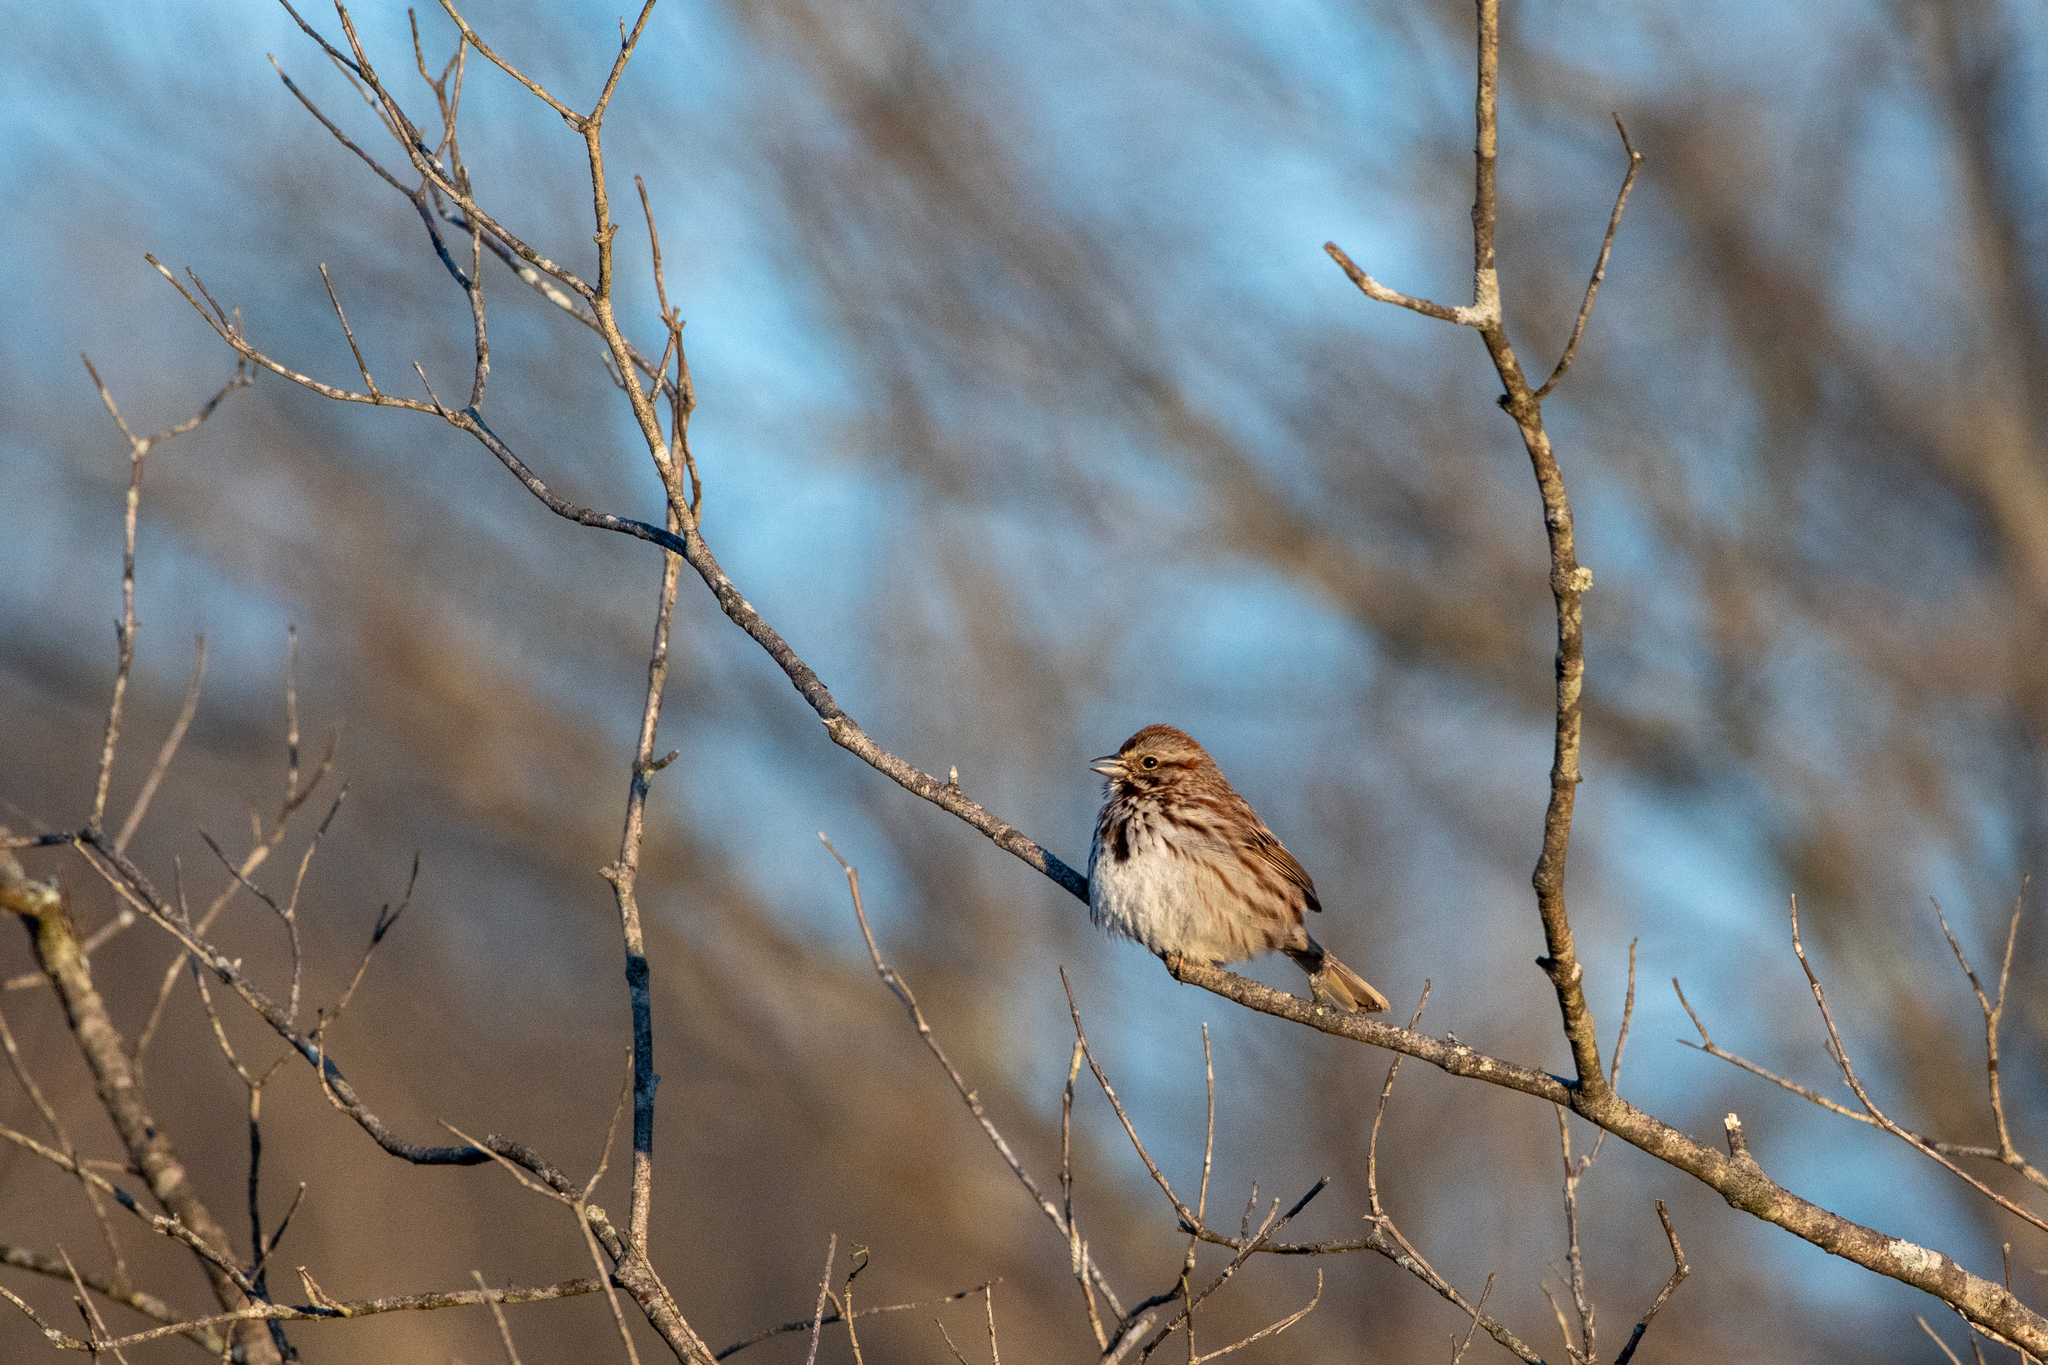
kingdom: Animalia
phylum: Chordata
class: Aves
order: Passeriformes
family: Passerellidae
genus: Melospiza
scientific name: Melospiza melodia
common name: Song sparrow
